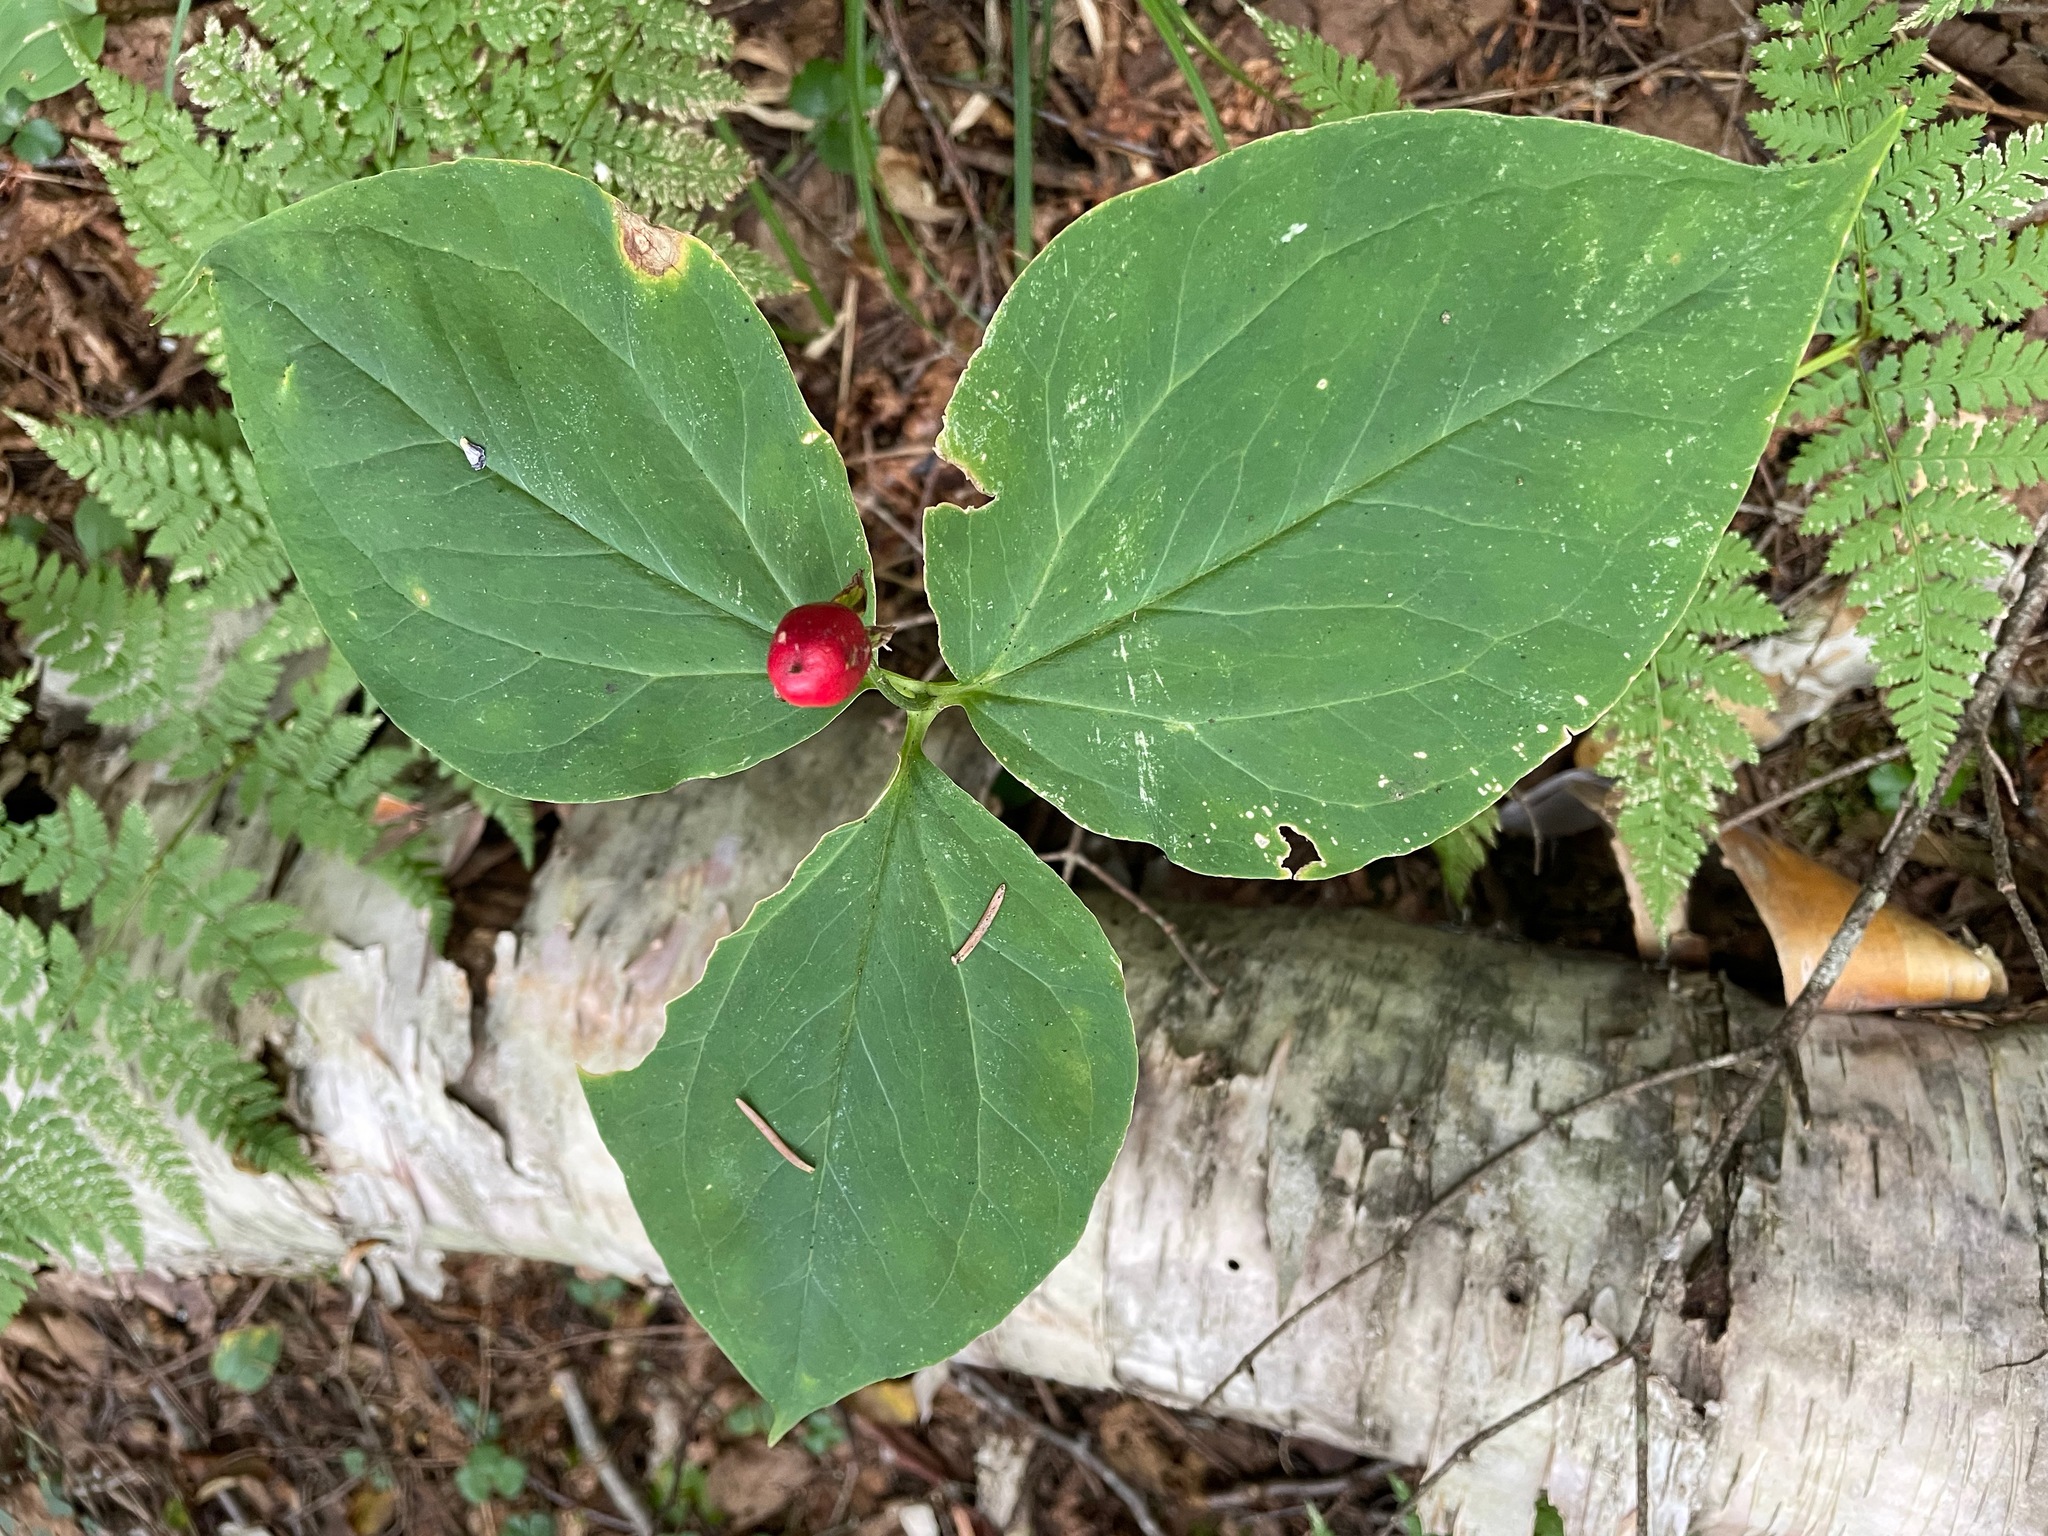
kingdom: Plantae
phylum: Tracheophyta
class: Liliopsida
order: Liliales
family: Melanthiaceae
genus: Trillium
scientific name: Trillium undulatum
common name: Paint trillium
